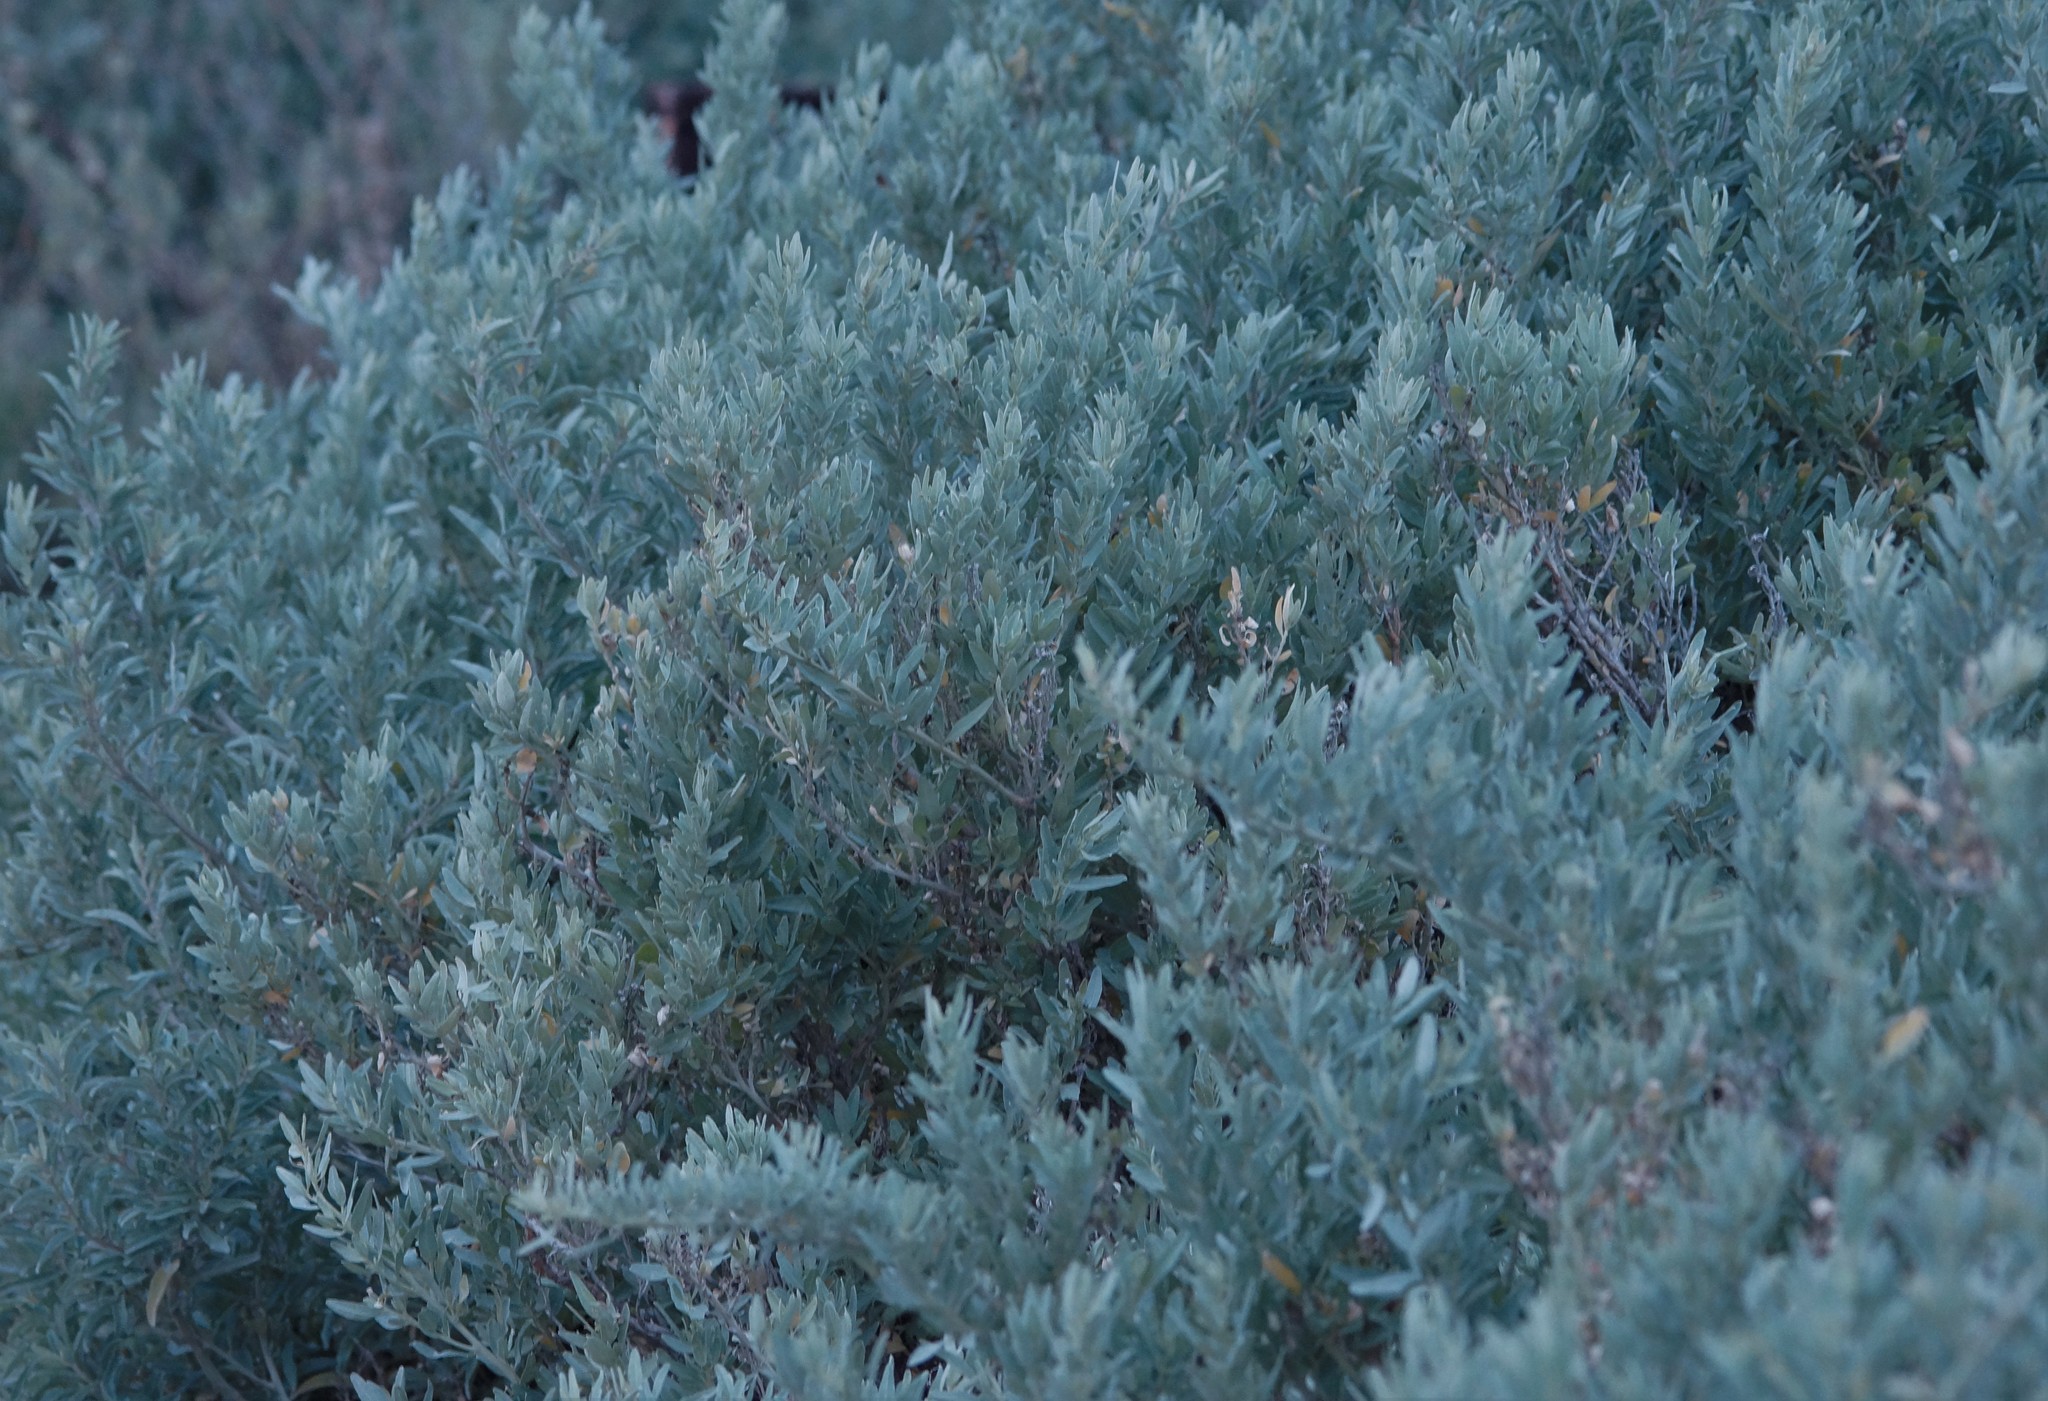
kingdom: Plantae
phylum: Tracheophyta
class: Magnoliopsida
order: Caryophyllales
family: Amaranthaceae
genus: Atriplex
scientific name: Atriplex cinerea
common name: Grey saltbush
